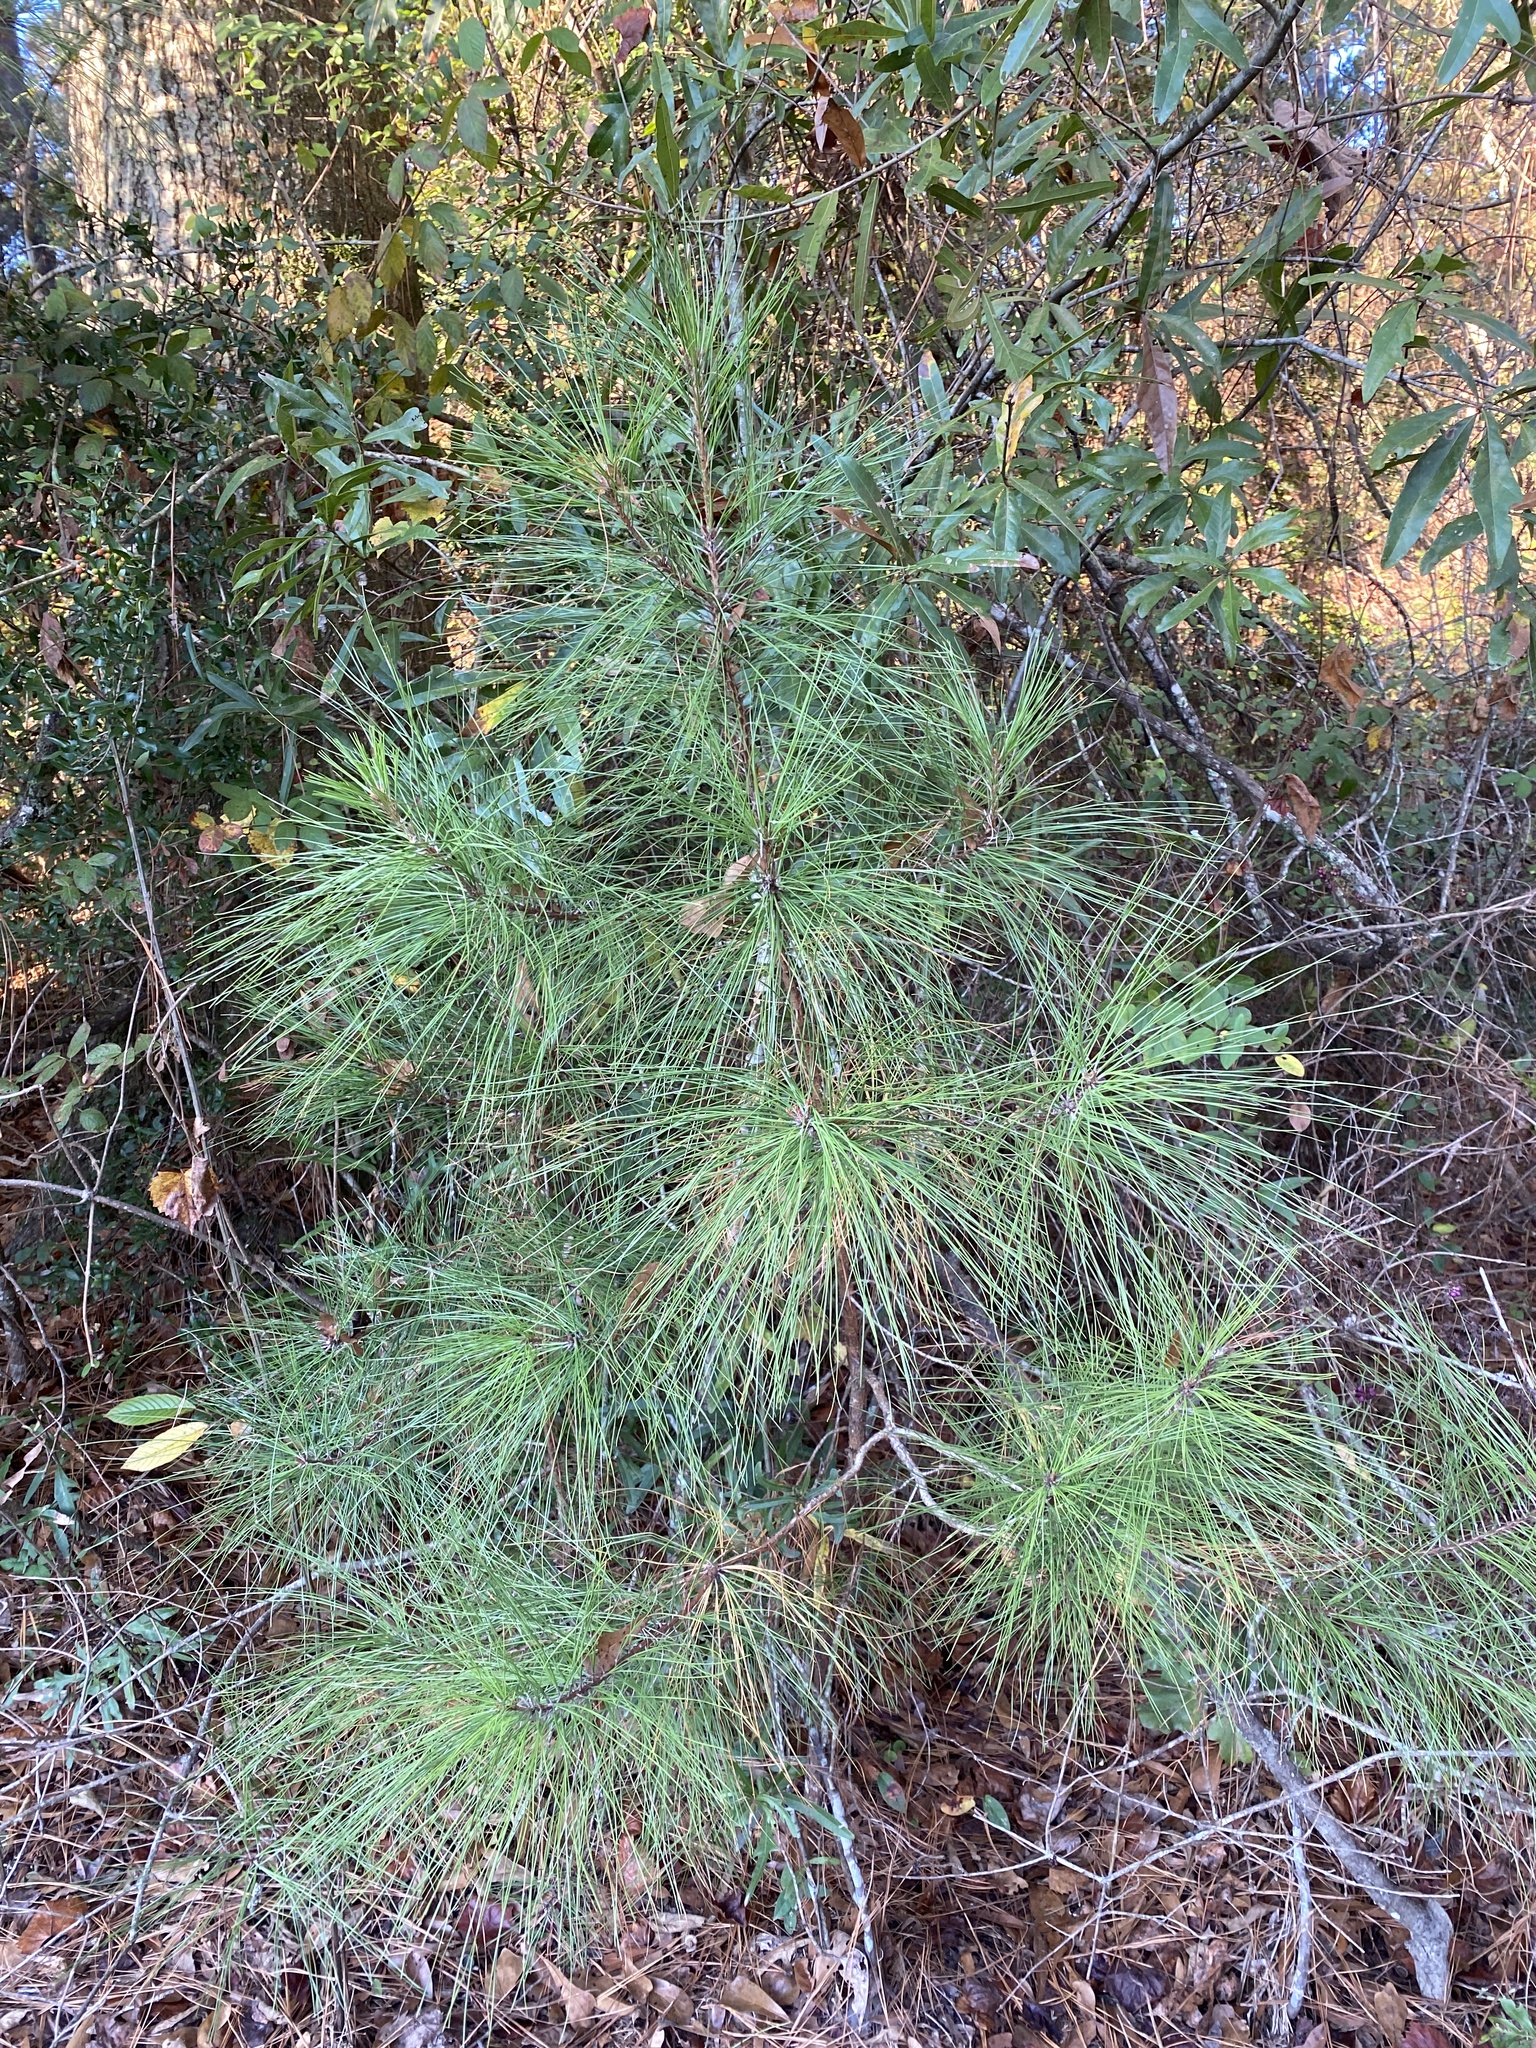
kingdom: Plantae
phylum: Tracheophyta
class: Pinopsida
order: Pinales
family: Pinaceae
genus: Pinus
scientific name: Pinus taeda
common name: Loblolly pine
